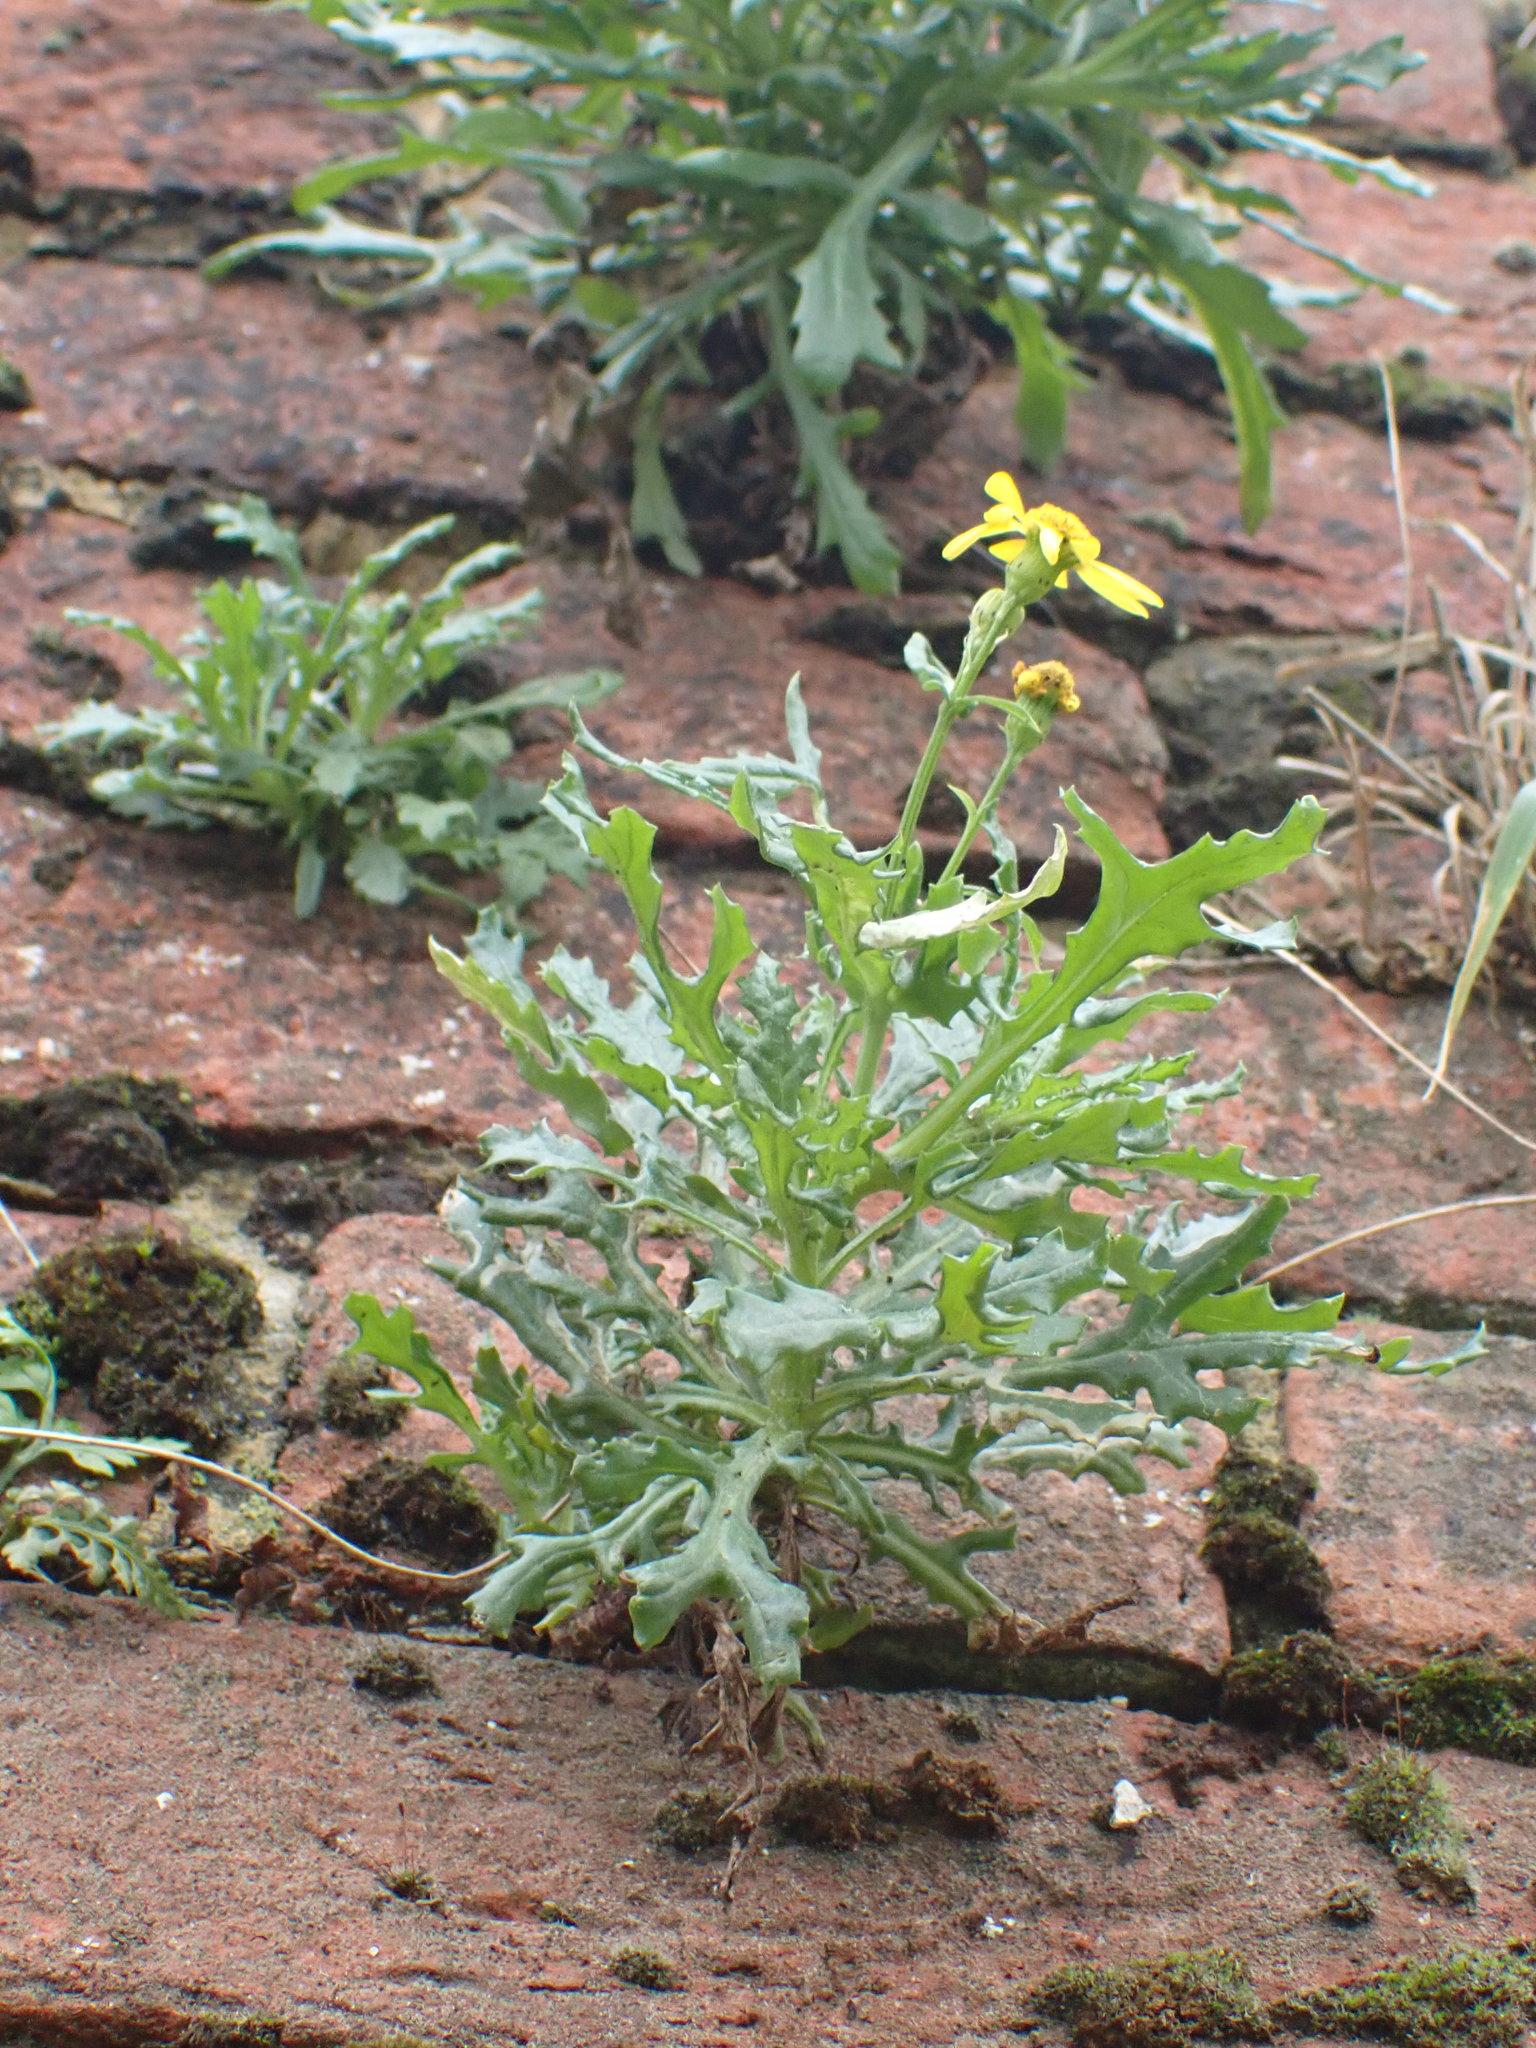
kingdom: Plantae
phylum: Tracheophyta
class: Magnoliopsida
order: Asterales
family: Asteraceae
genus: Senecio
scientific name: Senecio squalidus
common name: Oxford ragwort
